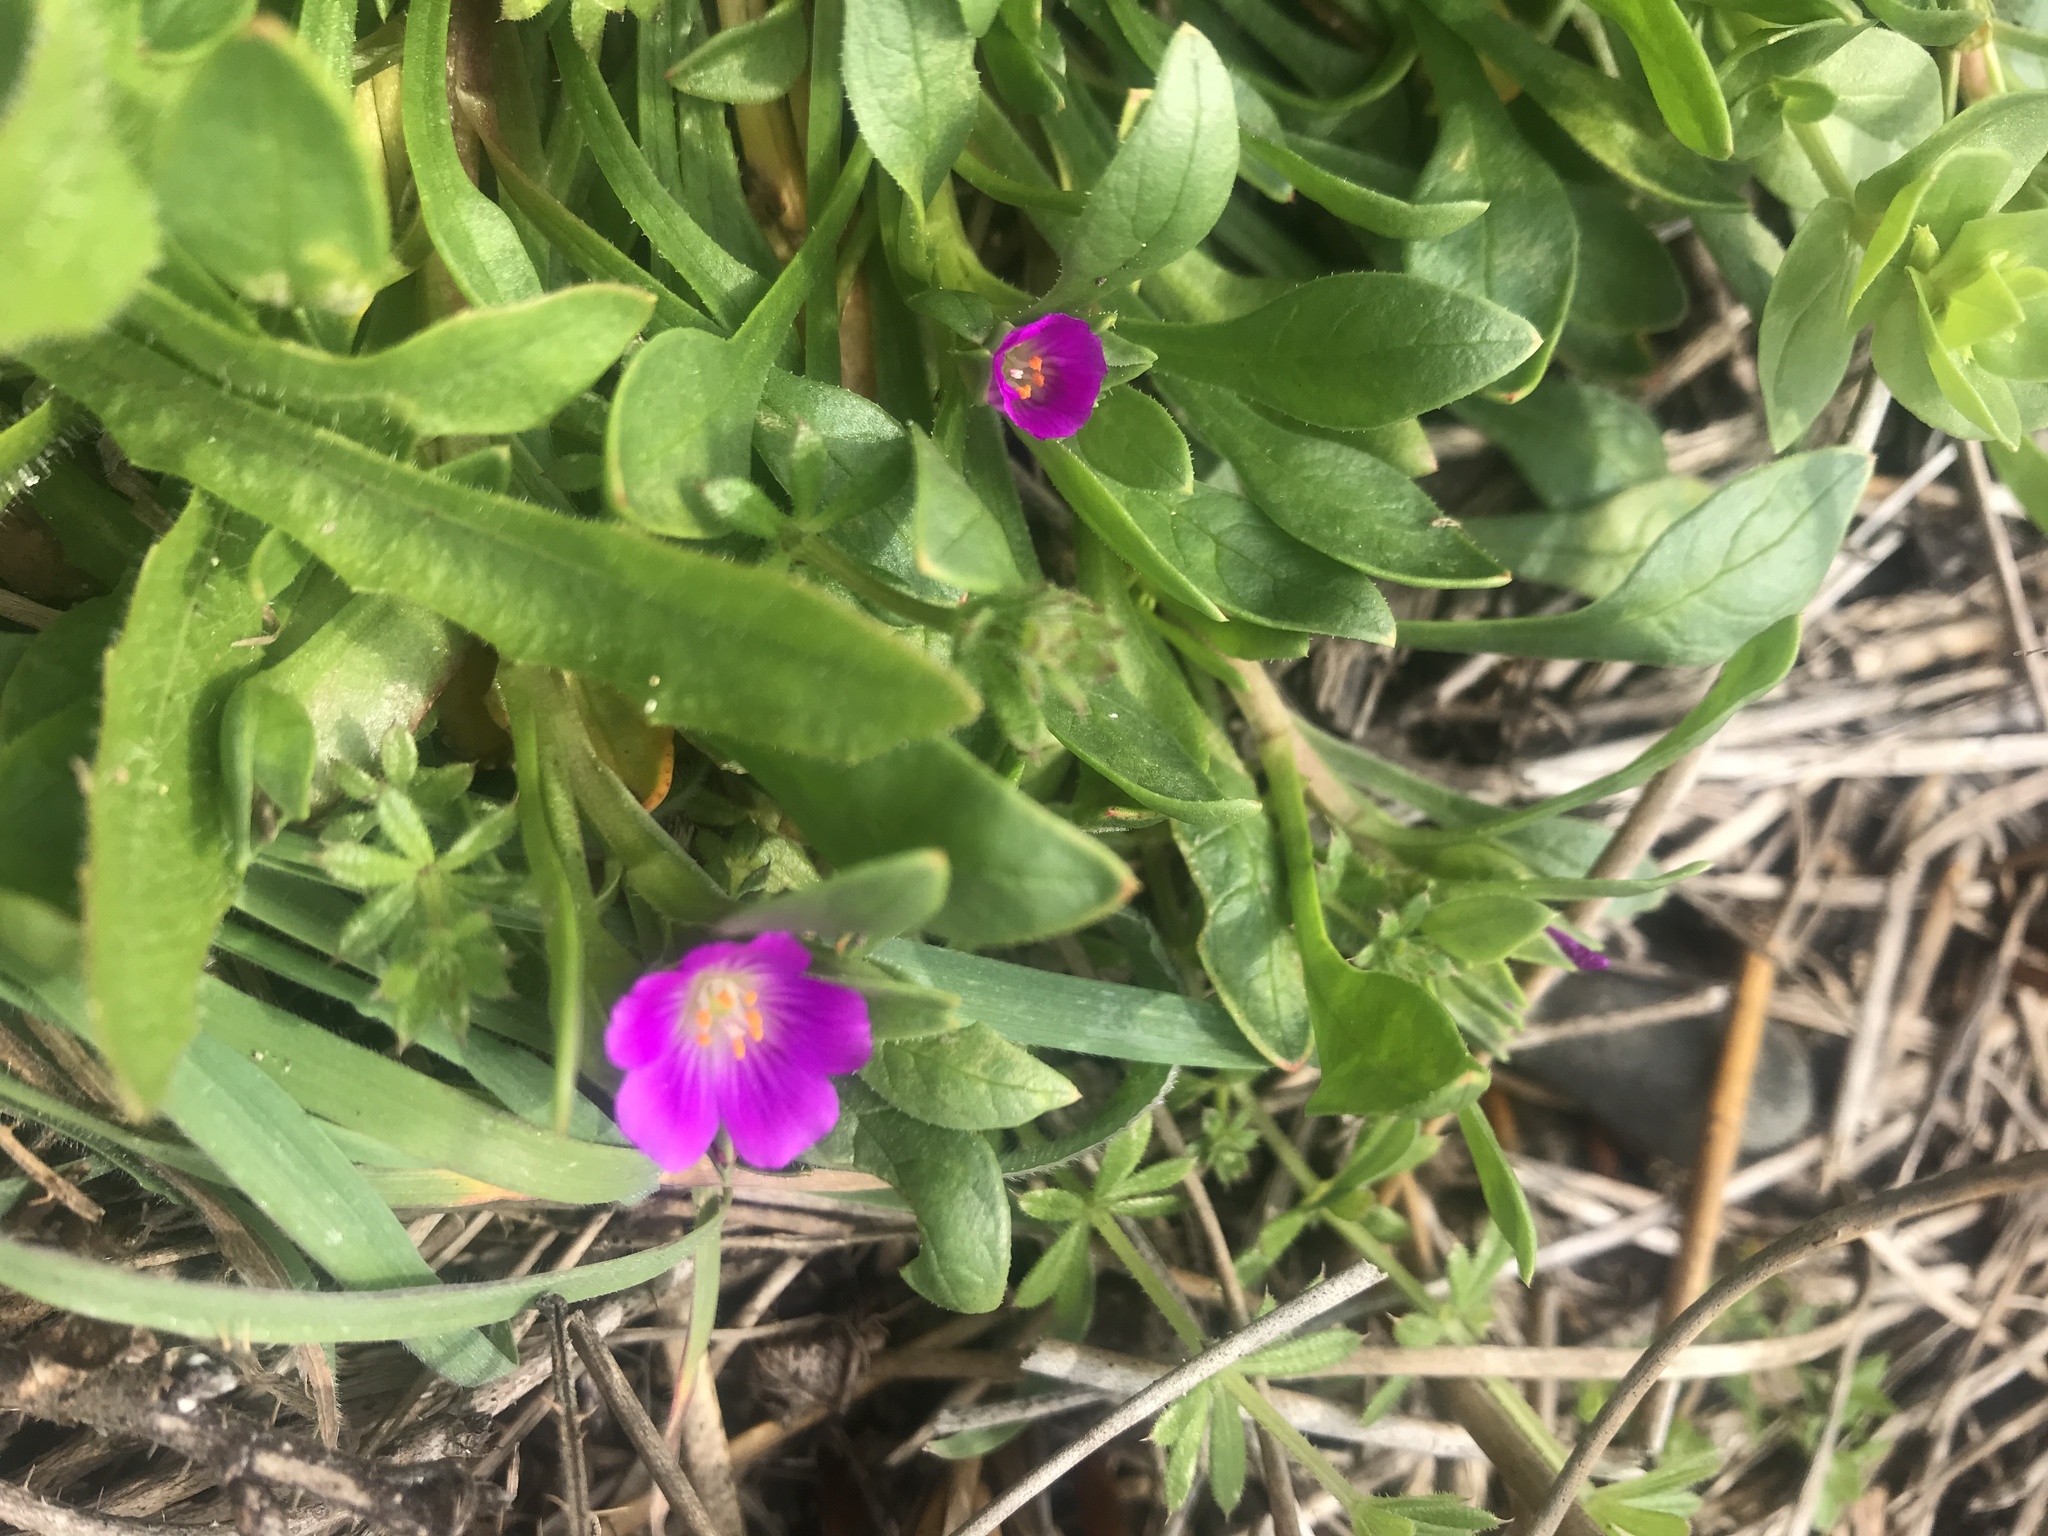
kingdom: Plantae
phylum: Tracheophyta
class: Magnoliopsida
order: Caryophyllales
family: Montiaceae
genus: Calandrinia
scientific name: Calandrinia menziesii
